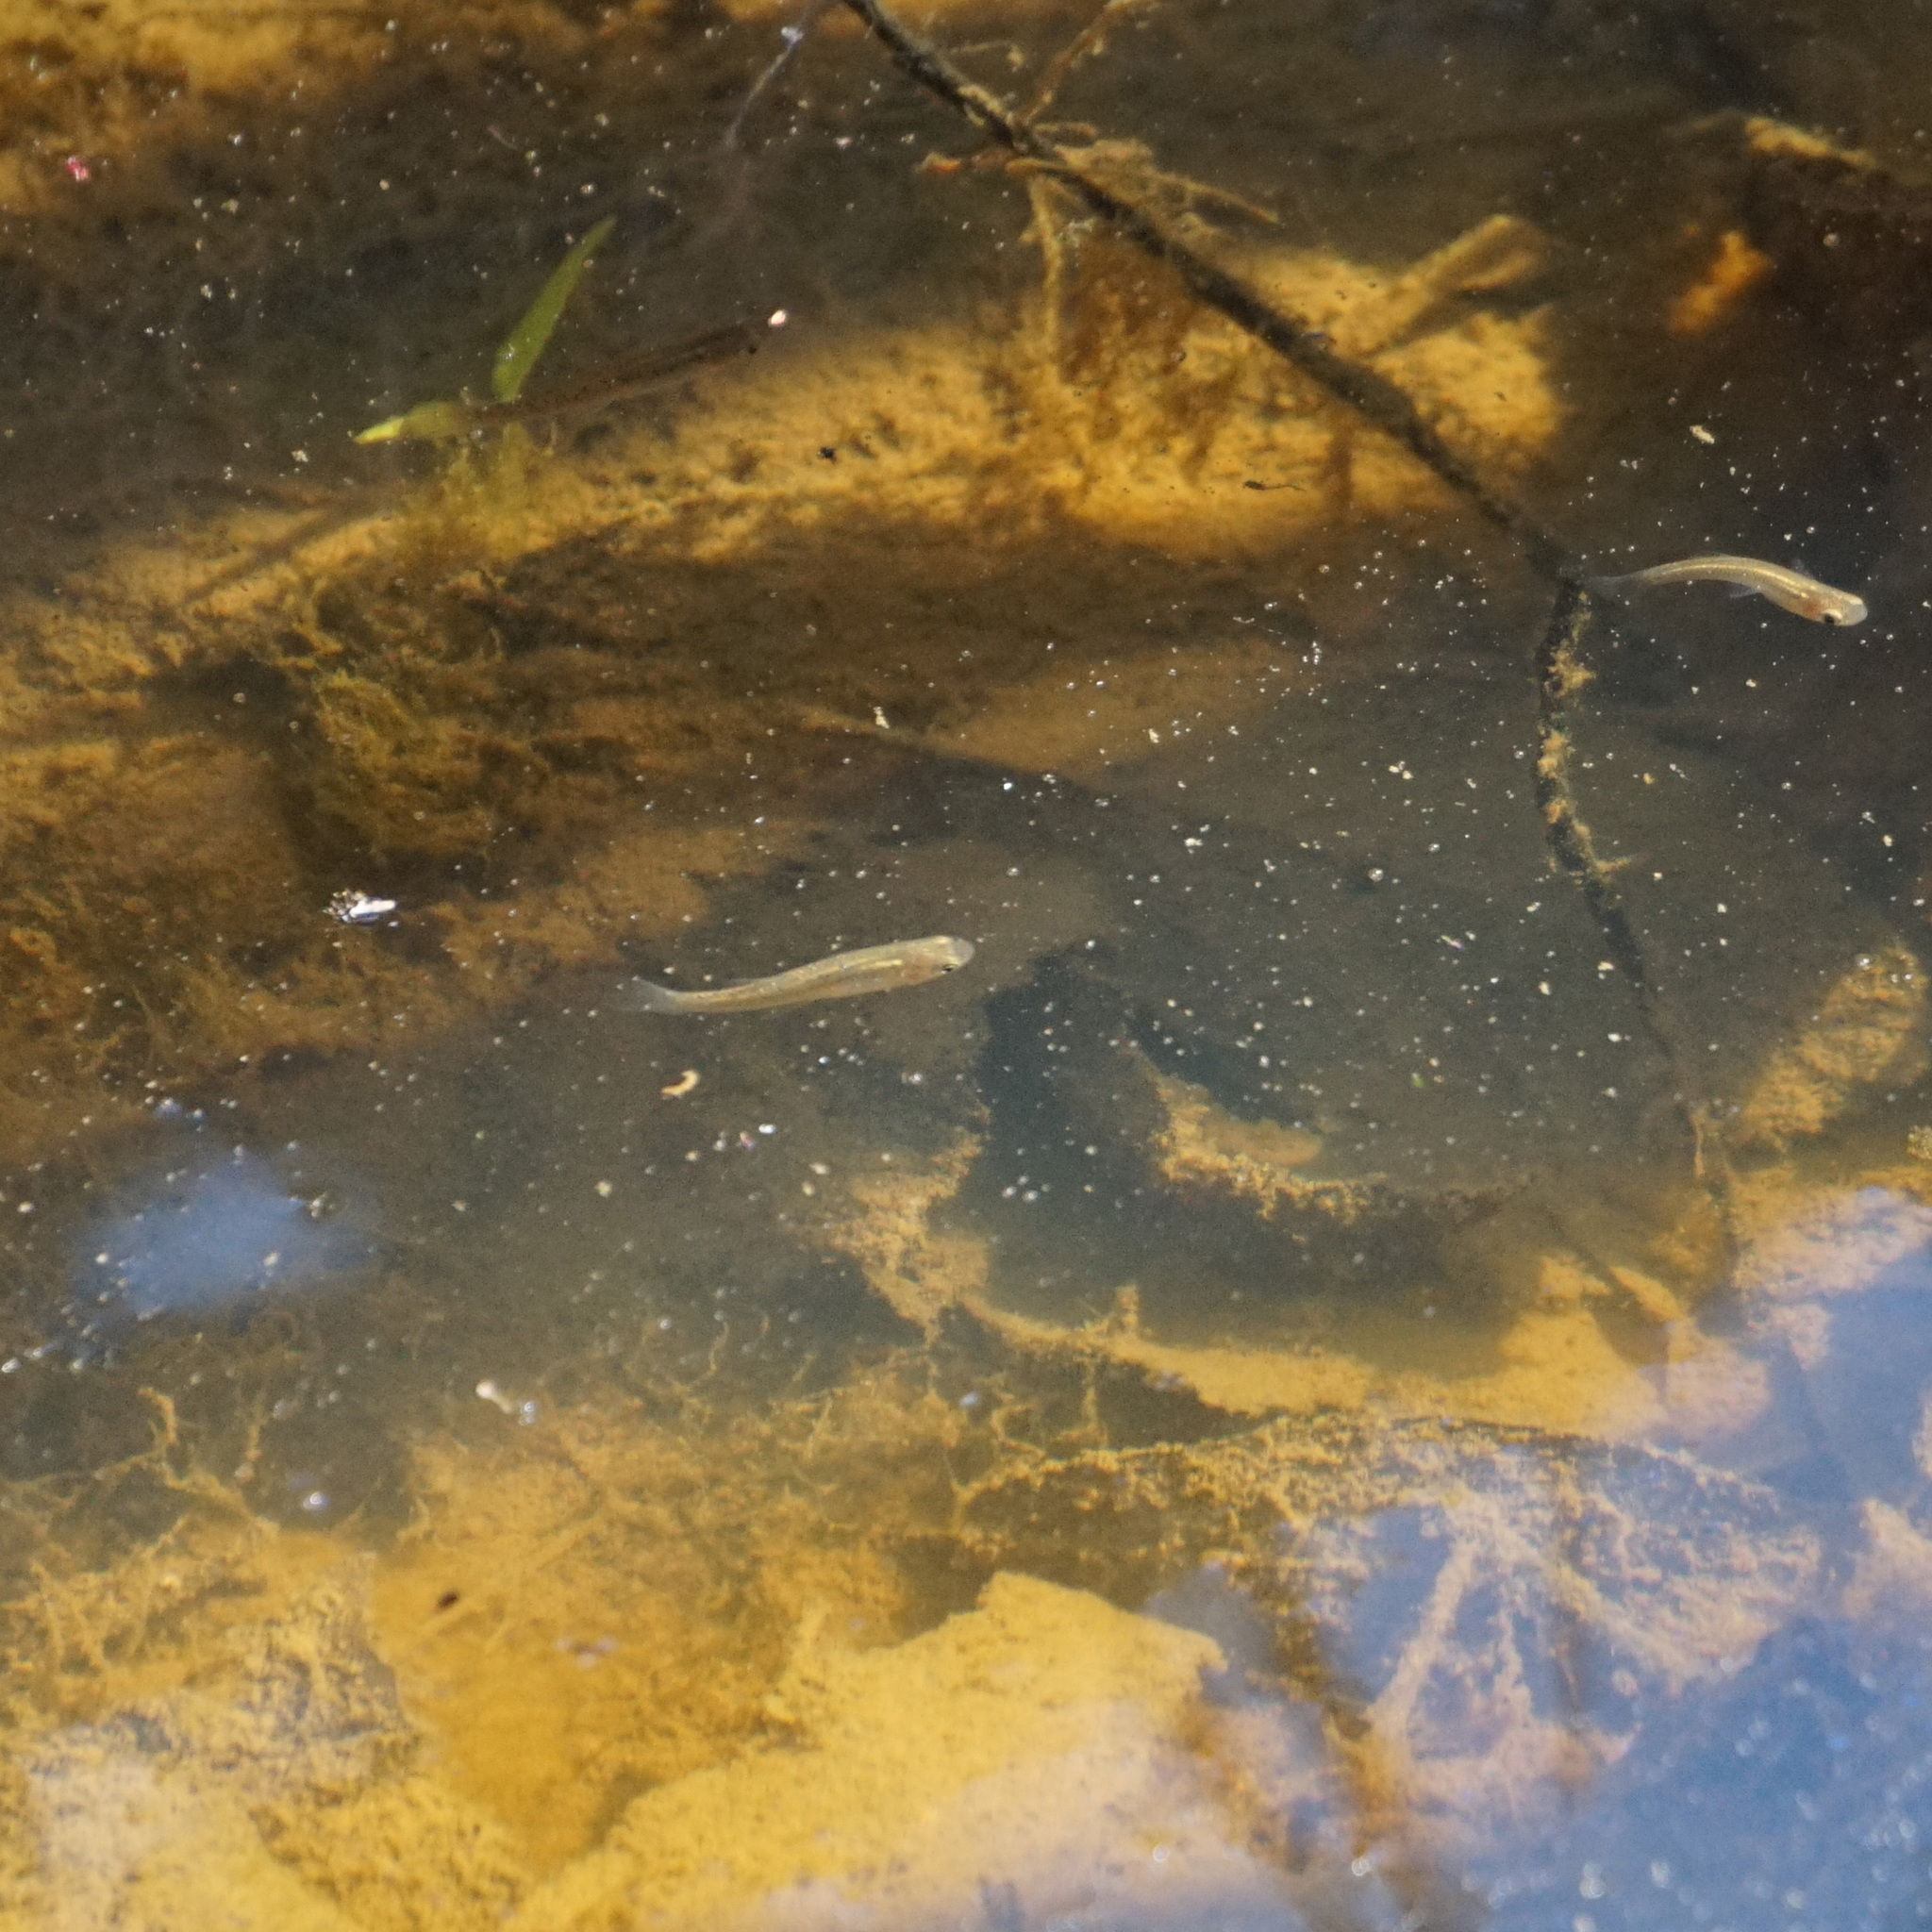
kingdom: Animalia
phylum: Chordata
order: Cyprinodontiformes
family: Poeciliidae
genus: Gambusia
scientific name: Gambusia holbrooki
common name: Eastern mosquitofish
